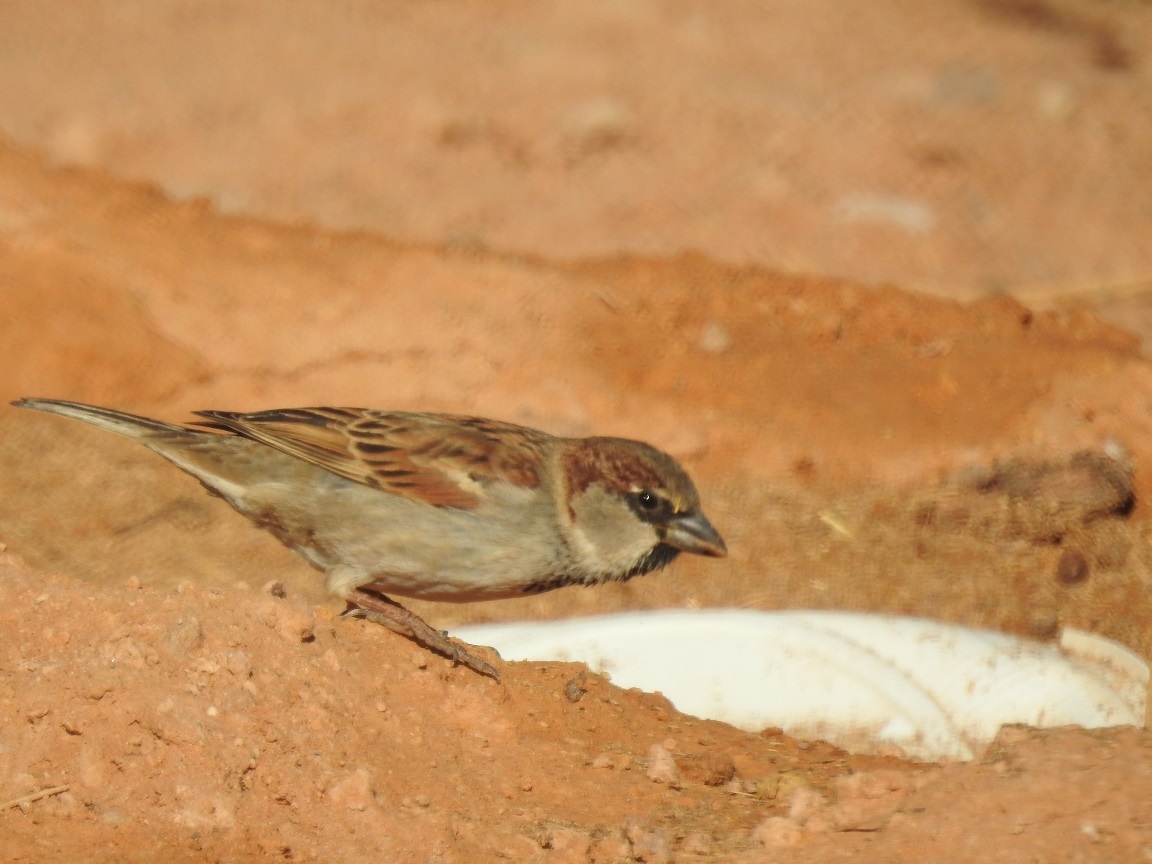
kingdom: Animalia
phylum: Chordata
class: Aves
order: Passeriformes
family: Passeridae
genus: Passer
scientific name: Passer domesticus
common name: House sparrow
